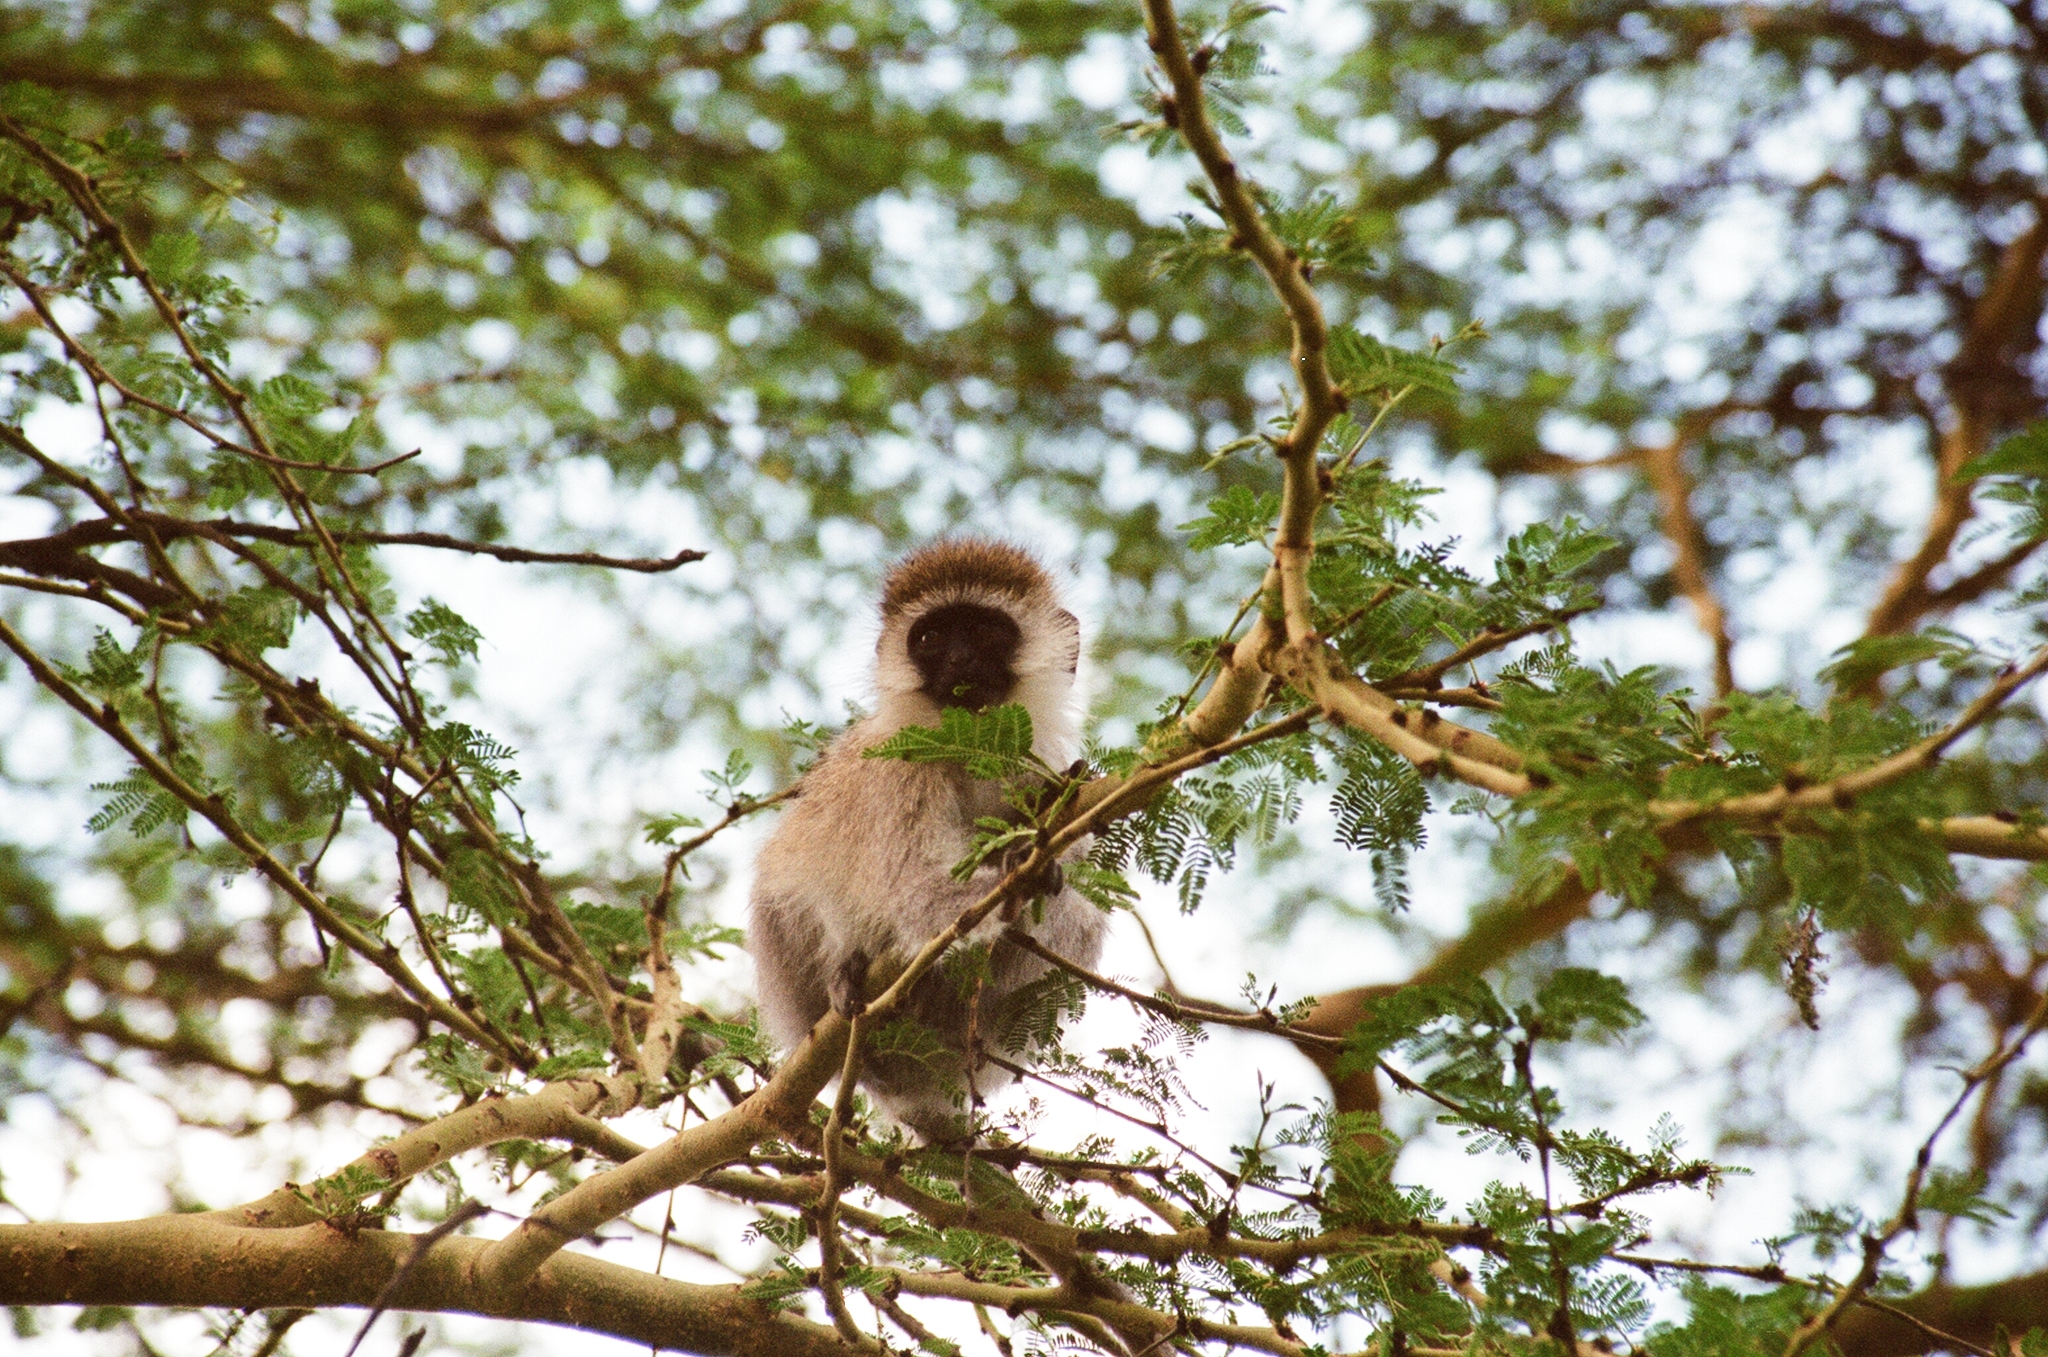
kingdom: Animalia
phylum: Chordata
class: Mammalia
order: Primates
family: Cercopithecidae
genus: Chlorocebus
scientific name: Chlorocebus pygerythrus
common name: Vervet monkey
